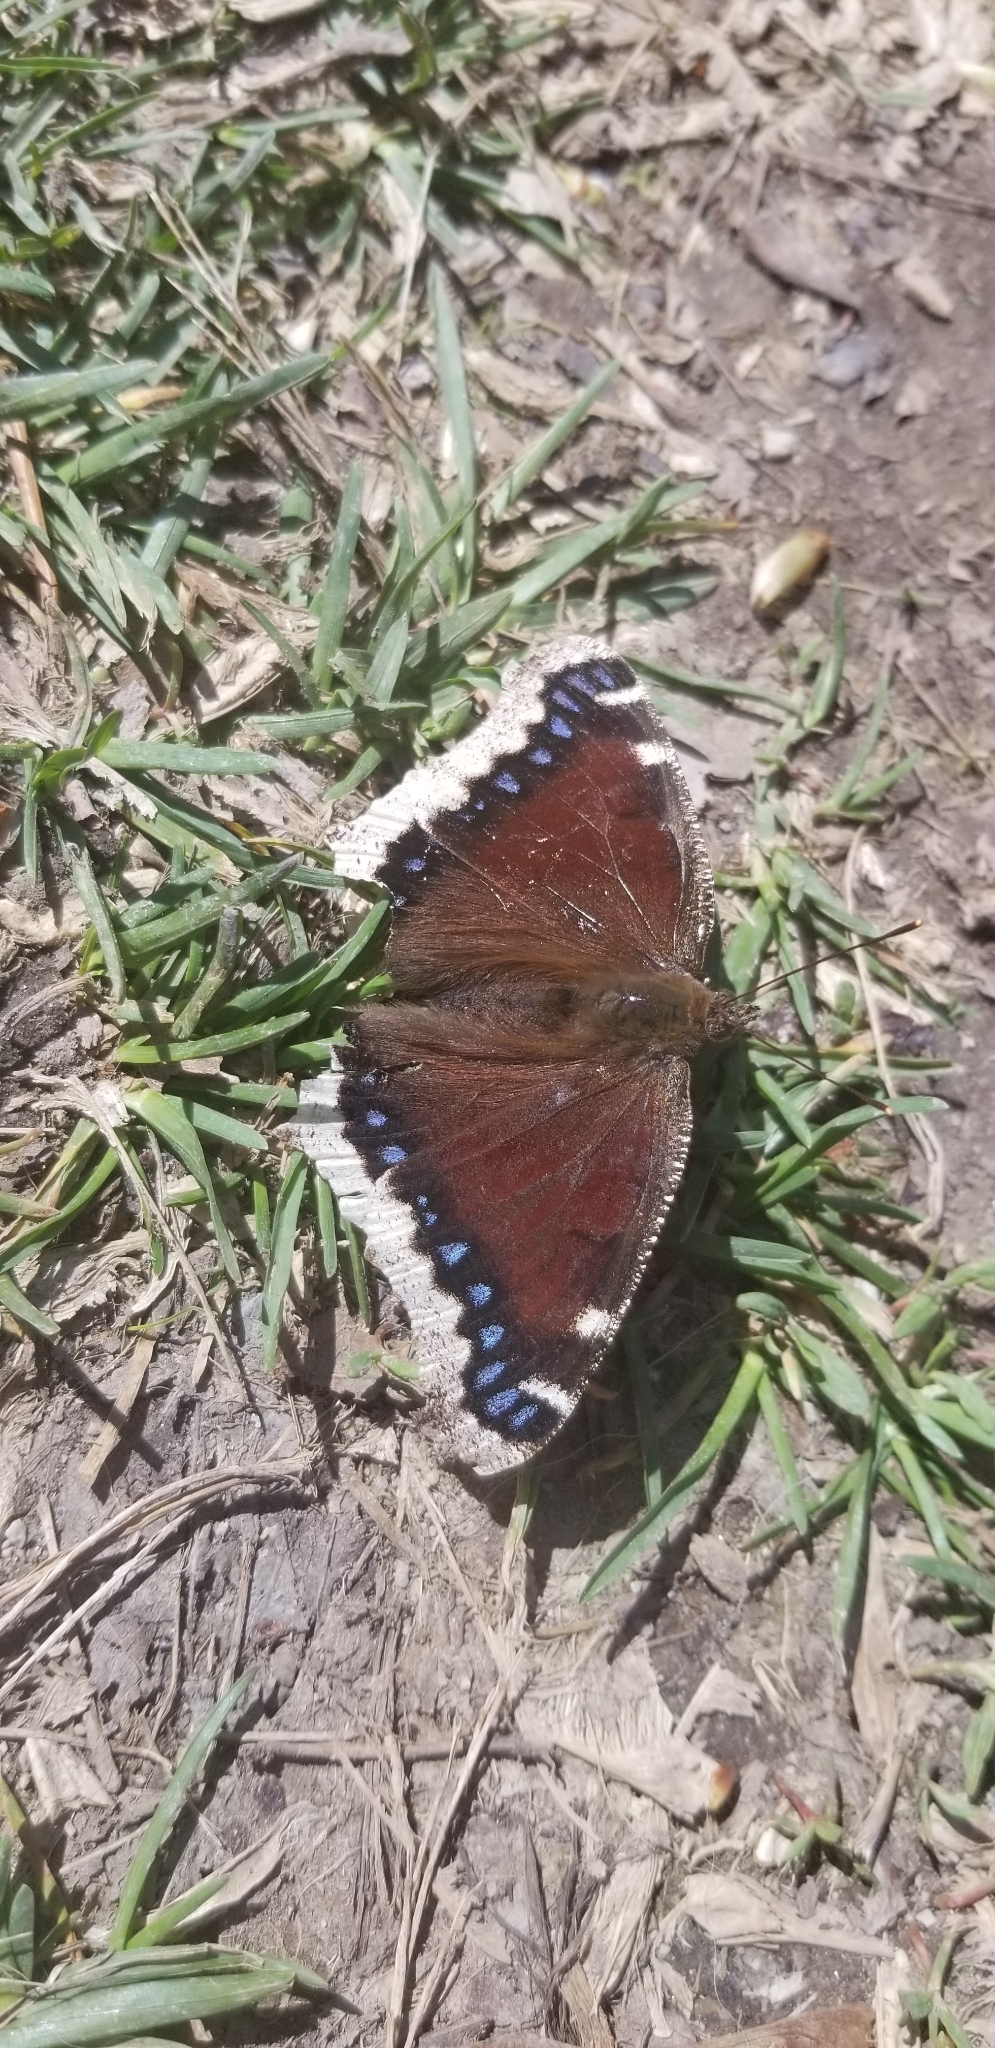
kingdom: Animalia
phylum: Arthropoda
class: Insecta
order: Lepidoptera
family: Nymphalidae
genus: Nymphalis
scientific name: Nymphalis antiopa
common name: Camberwell beauty
